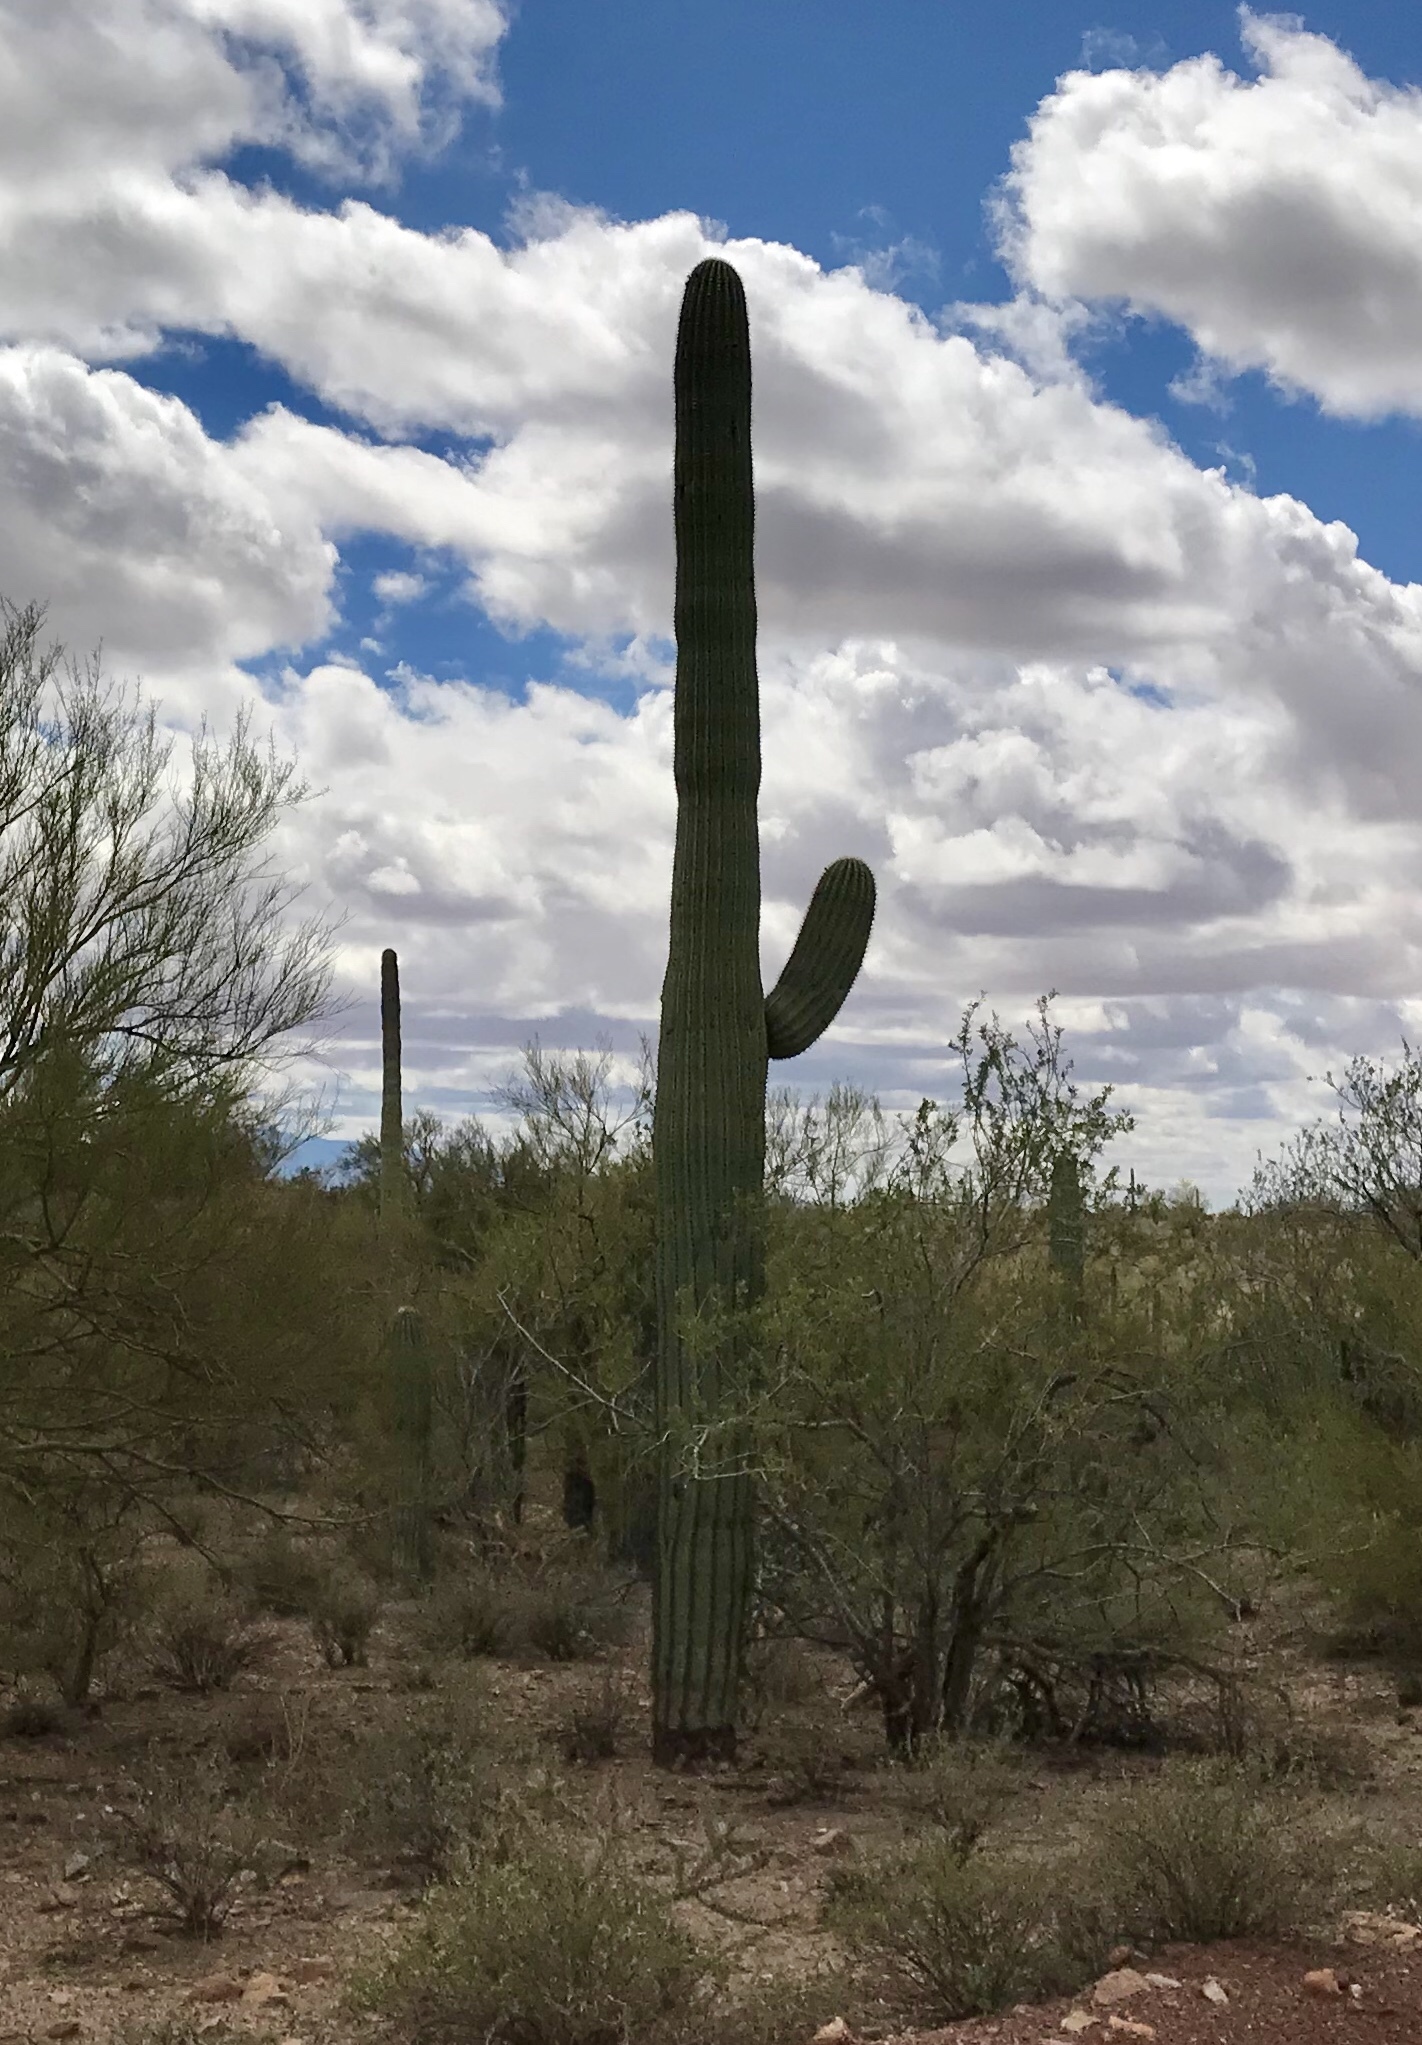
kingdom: Plantae
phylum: Tracheophyta
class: Magnoliopsida
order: Caryophyllales
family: Cactaceae
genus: Carnegiea
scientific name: Carnegiea gigantea
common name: Saguaro
